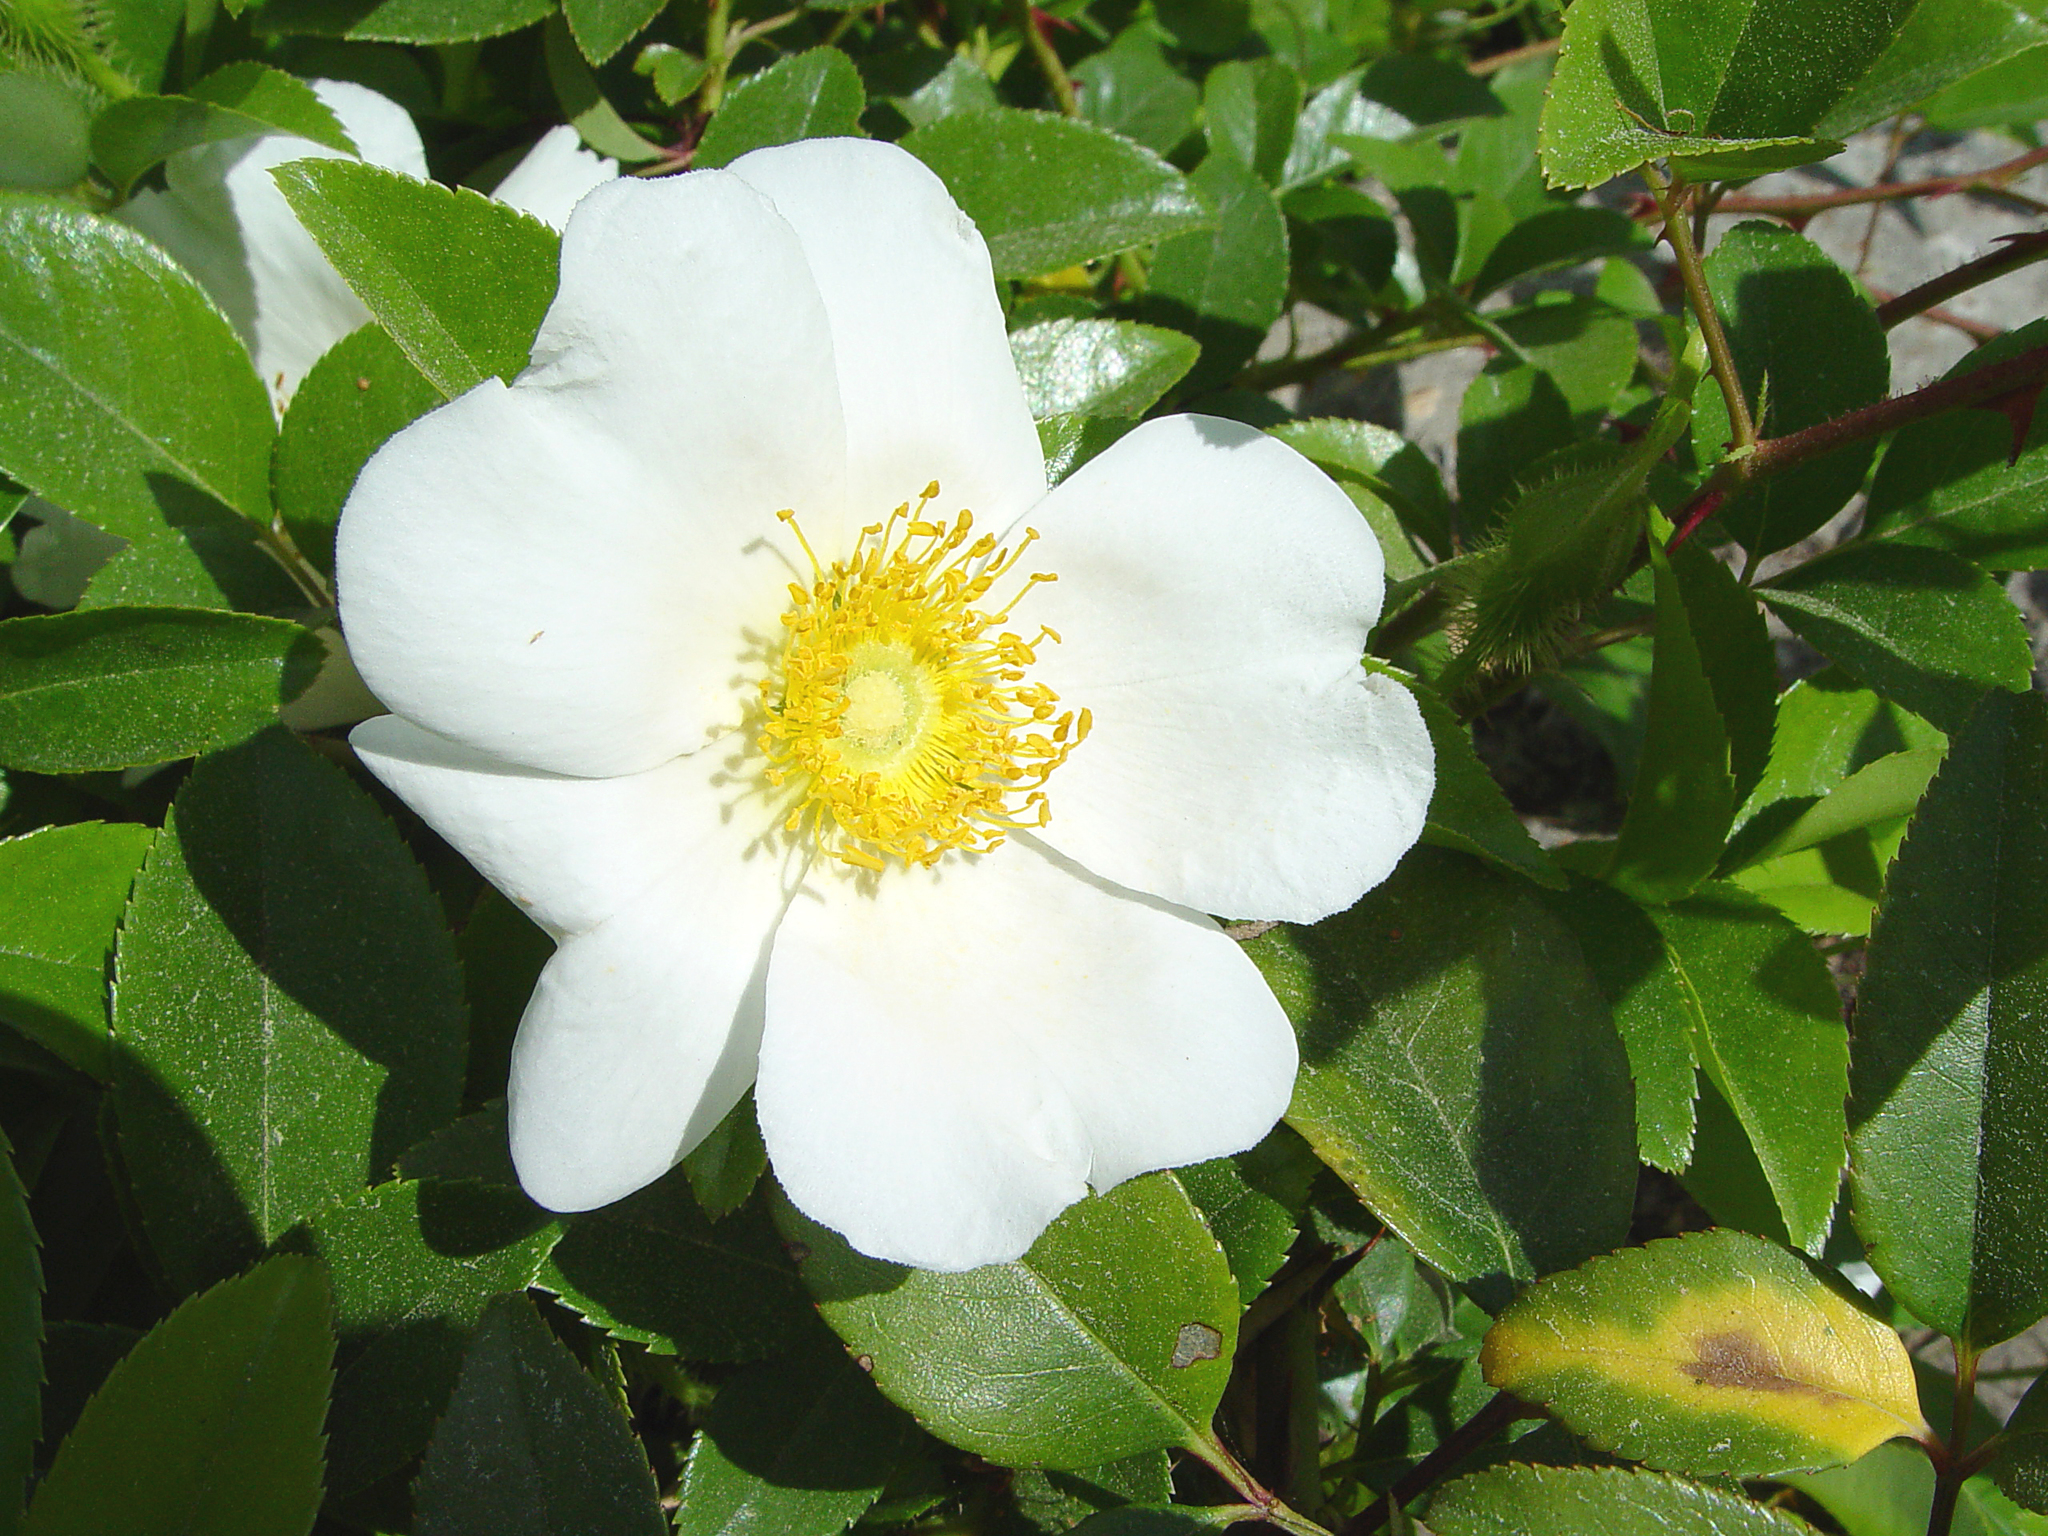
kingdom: Plantae
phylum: Tracheophyta
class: Magnoliopsida
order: Rosales
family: Rosaceae
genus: Rosa
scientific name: Rosa laevigata
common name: Cherokee rose
